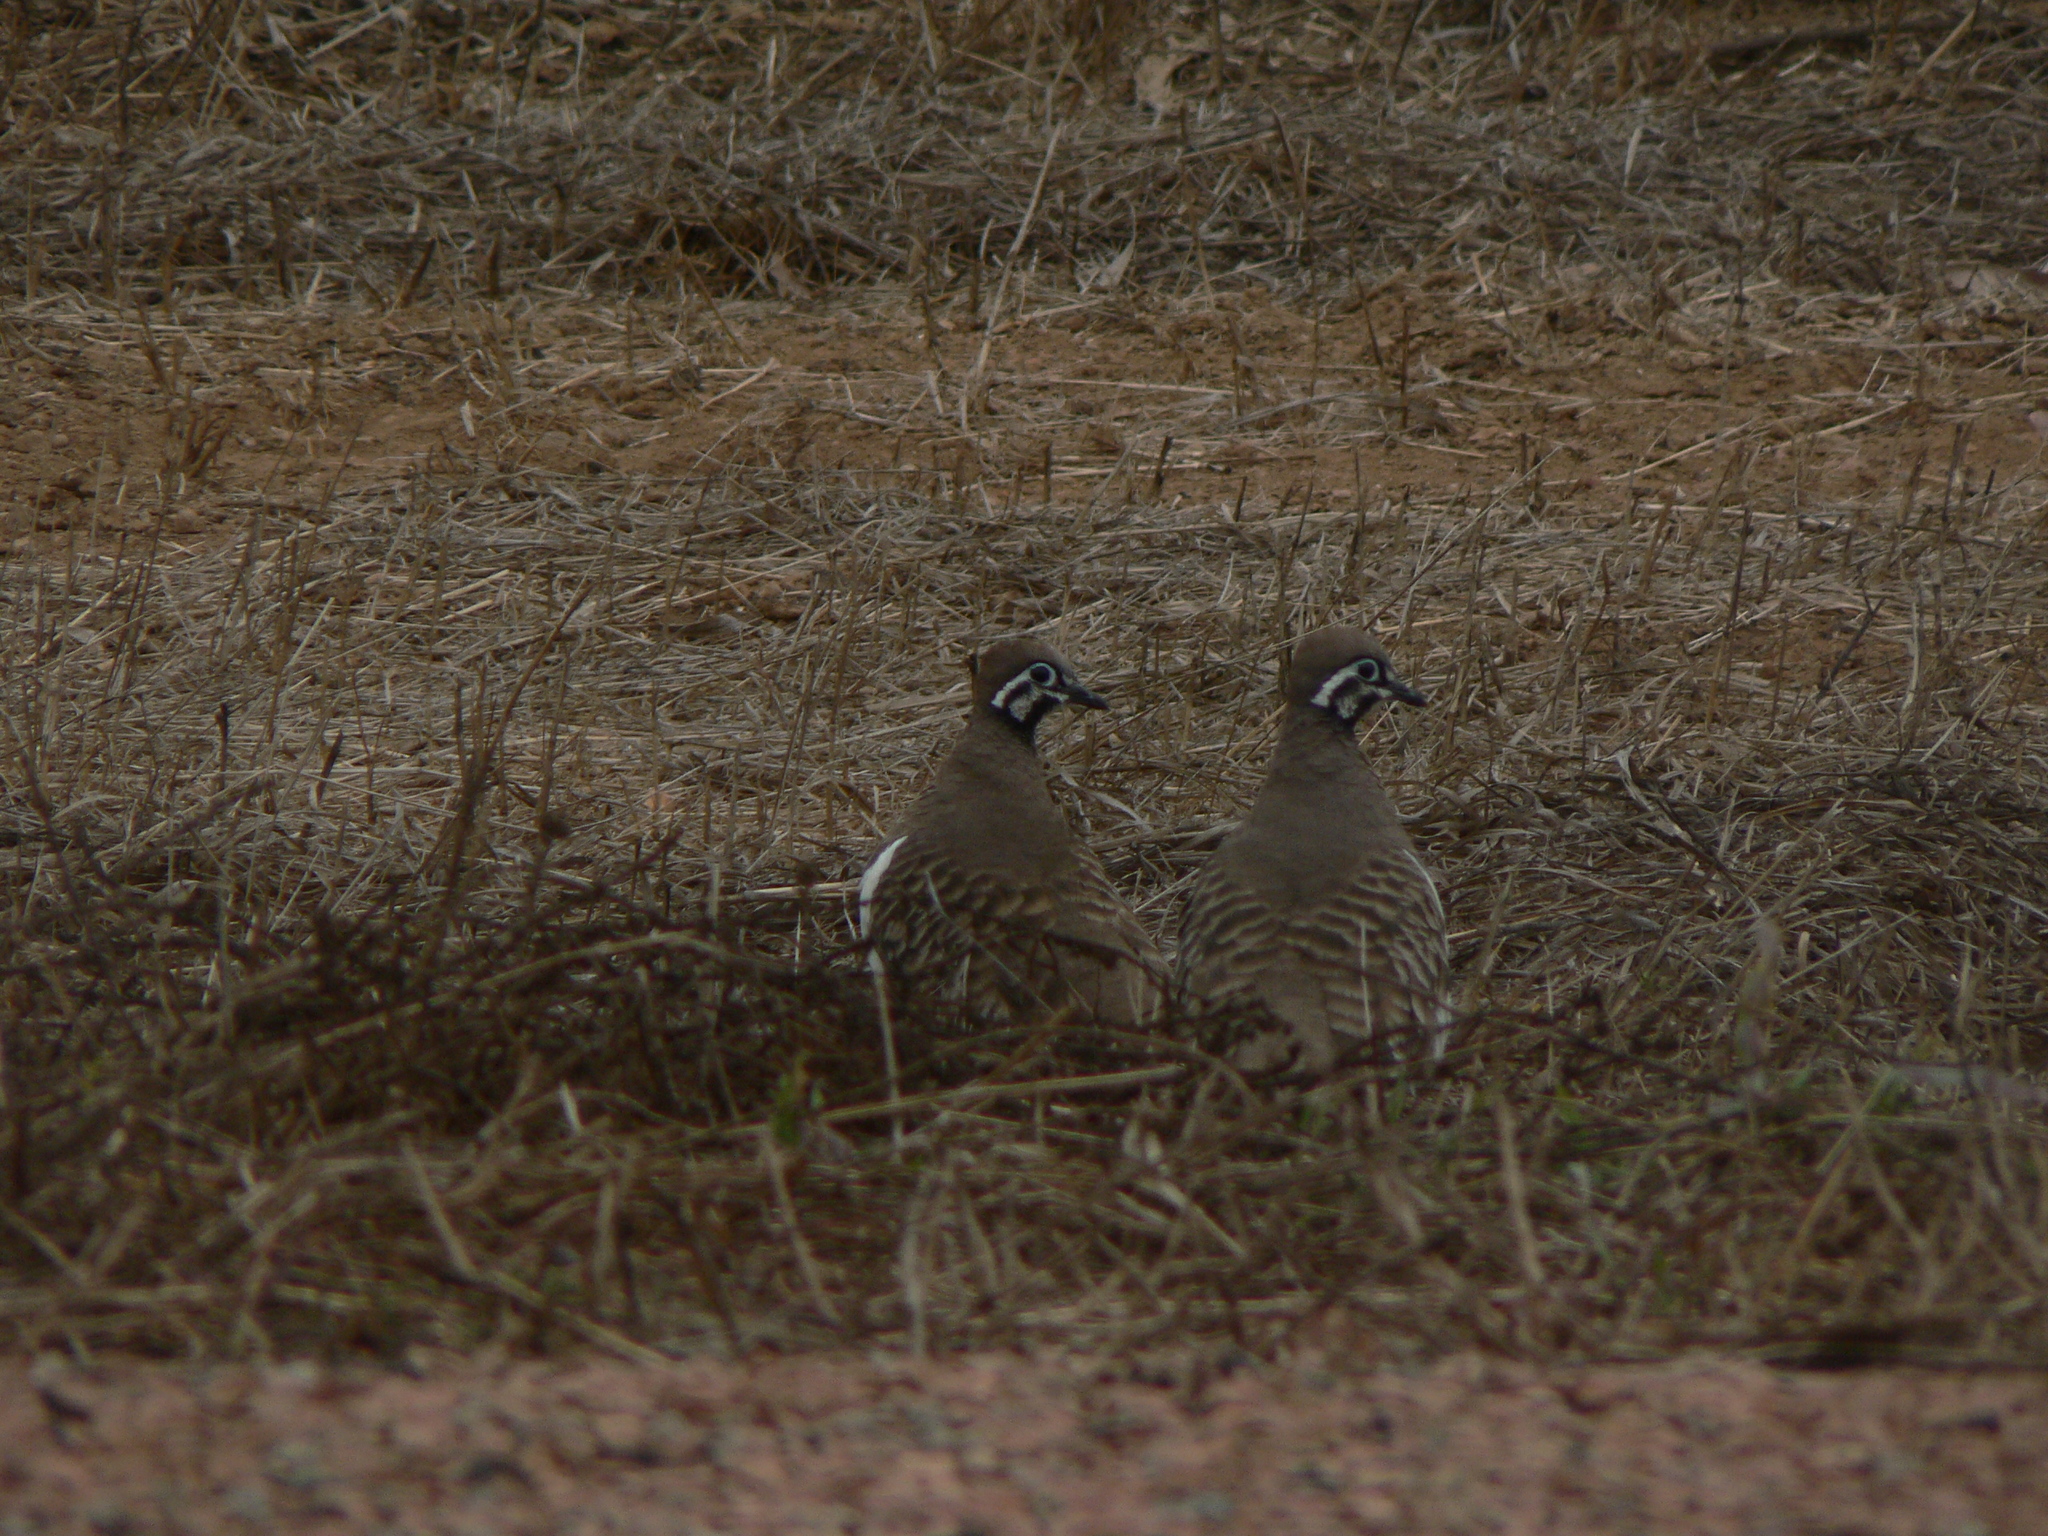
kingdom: Animalia
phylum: Chordata
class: Aves
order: Columbiformes
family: Columbidae
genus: Geophaps
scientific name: Geophaps scripta
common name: Squatter pigeon
